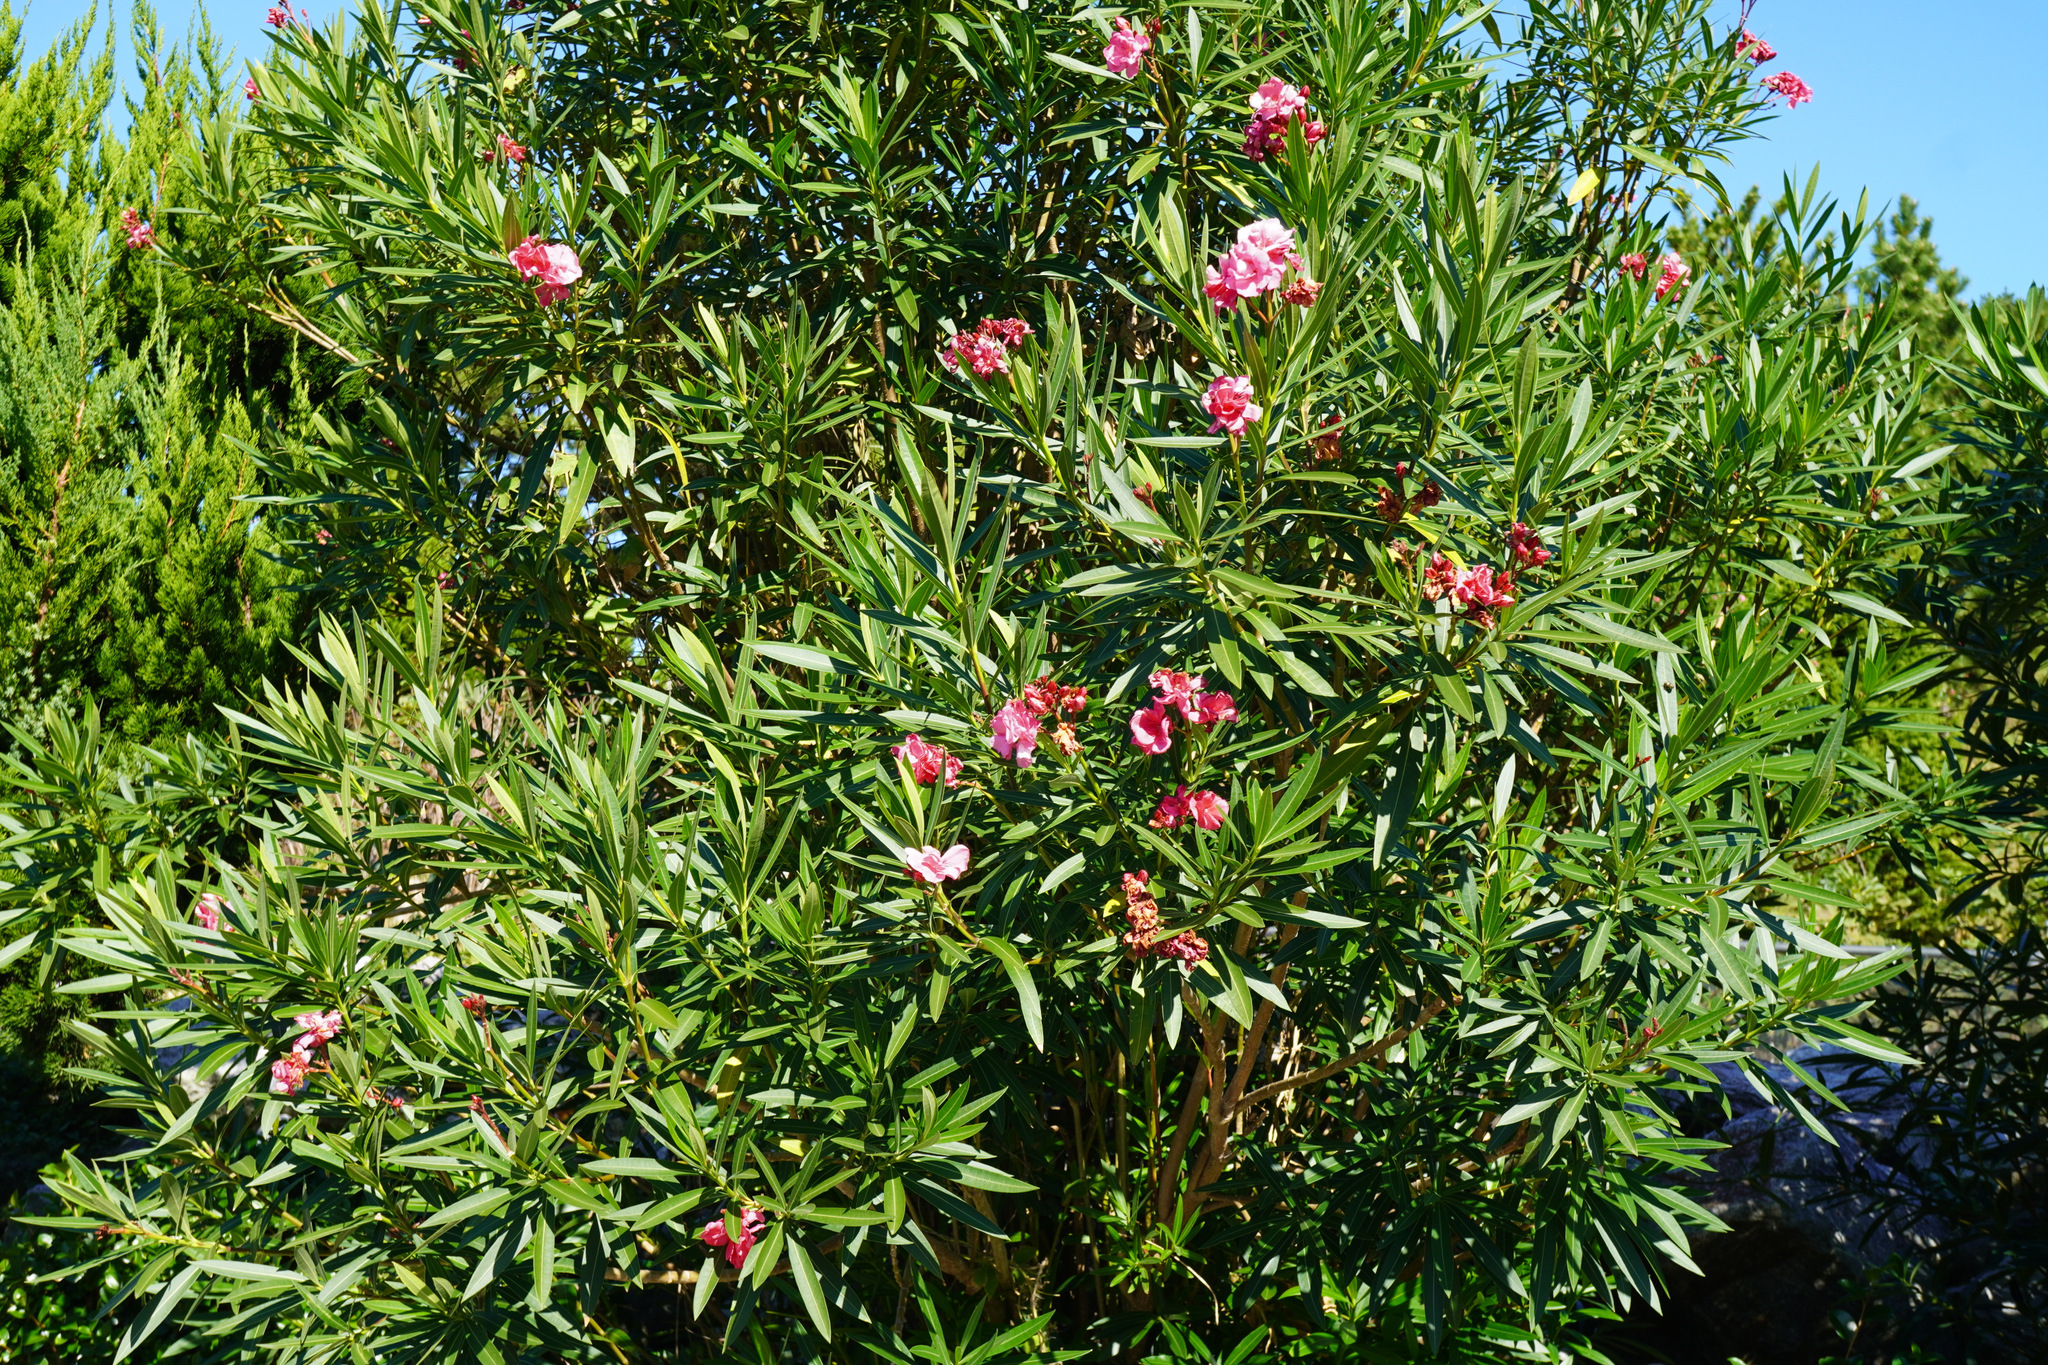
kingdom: Plantae
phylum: Tracheophyta
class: Magnoliopsida
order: Gentianales
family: Apocynaceae
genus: Nerium
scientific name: Nerium oleander
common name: Oleander
